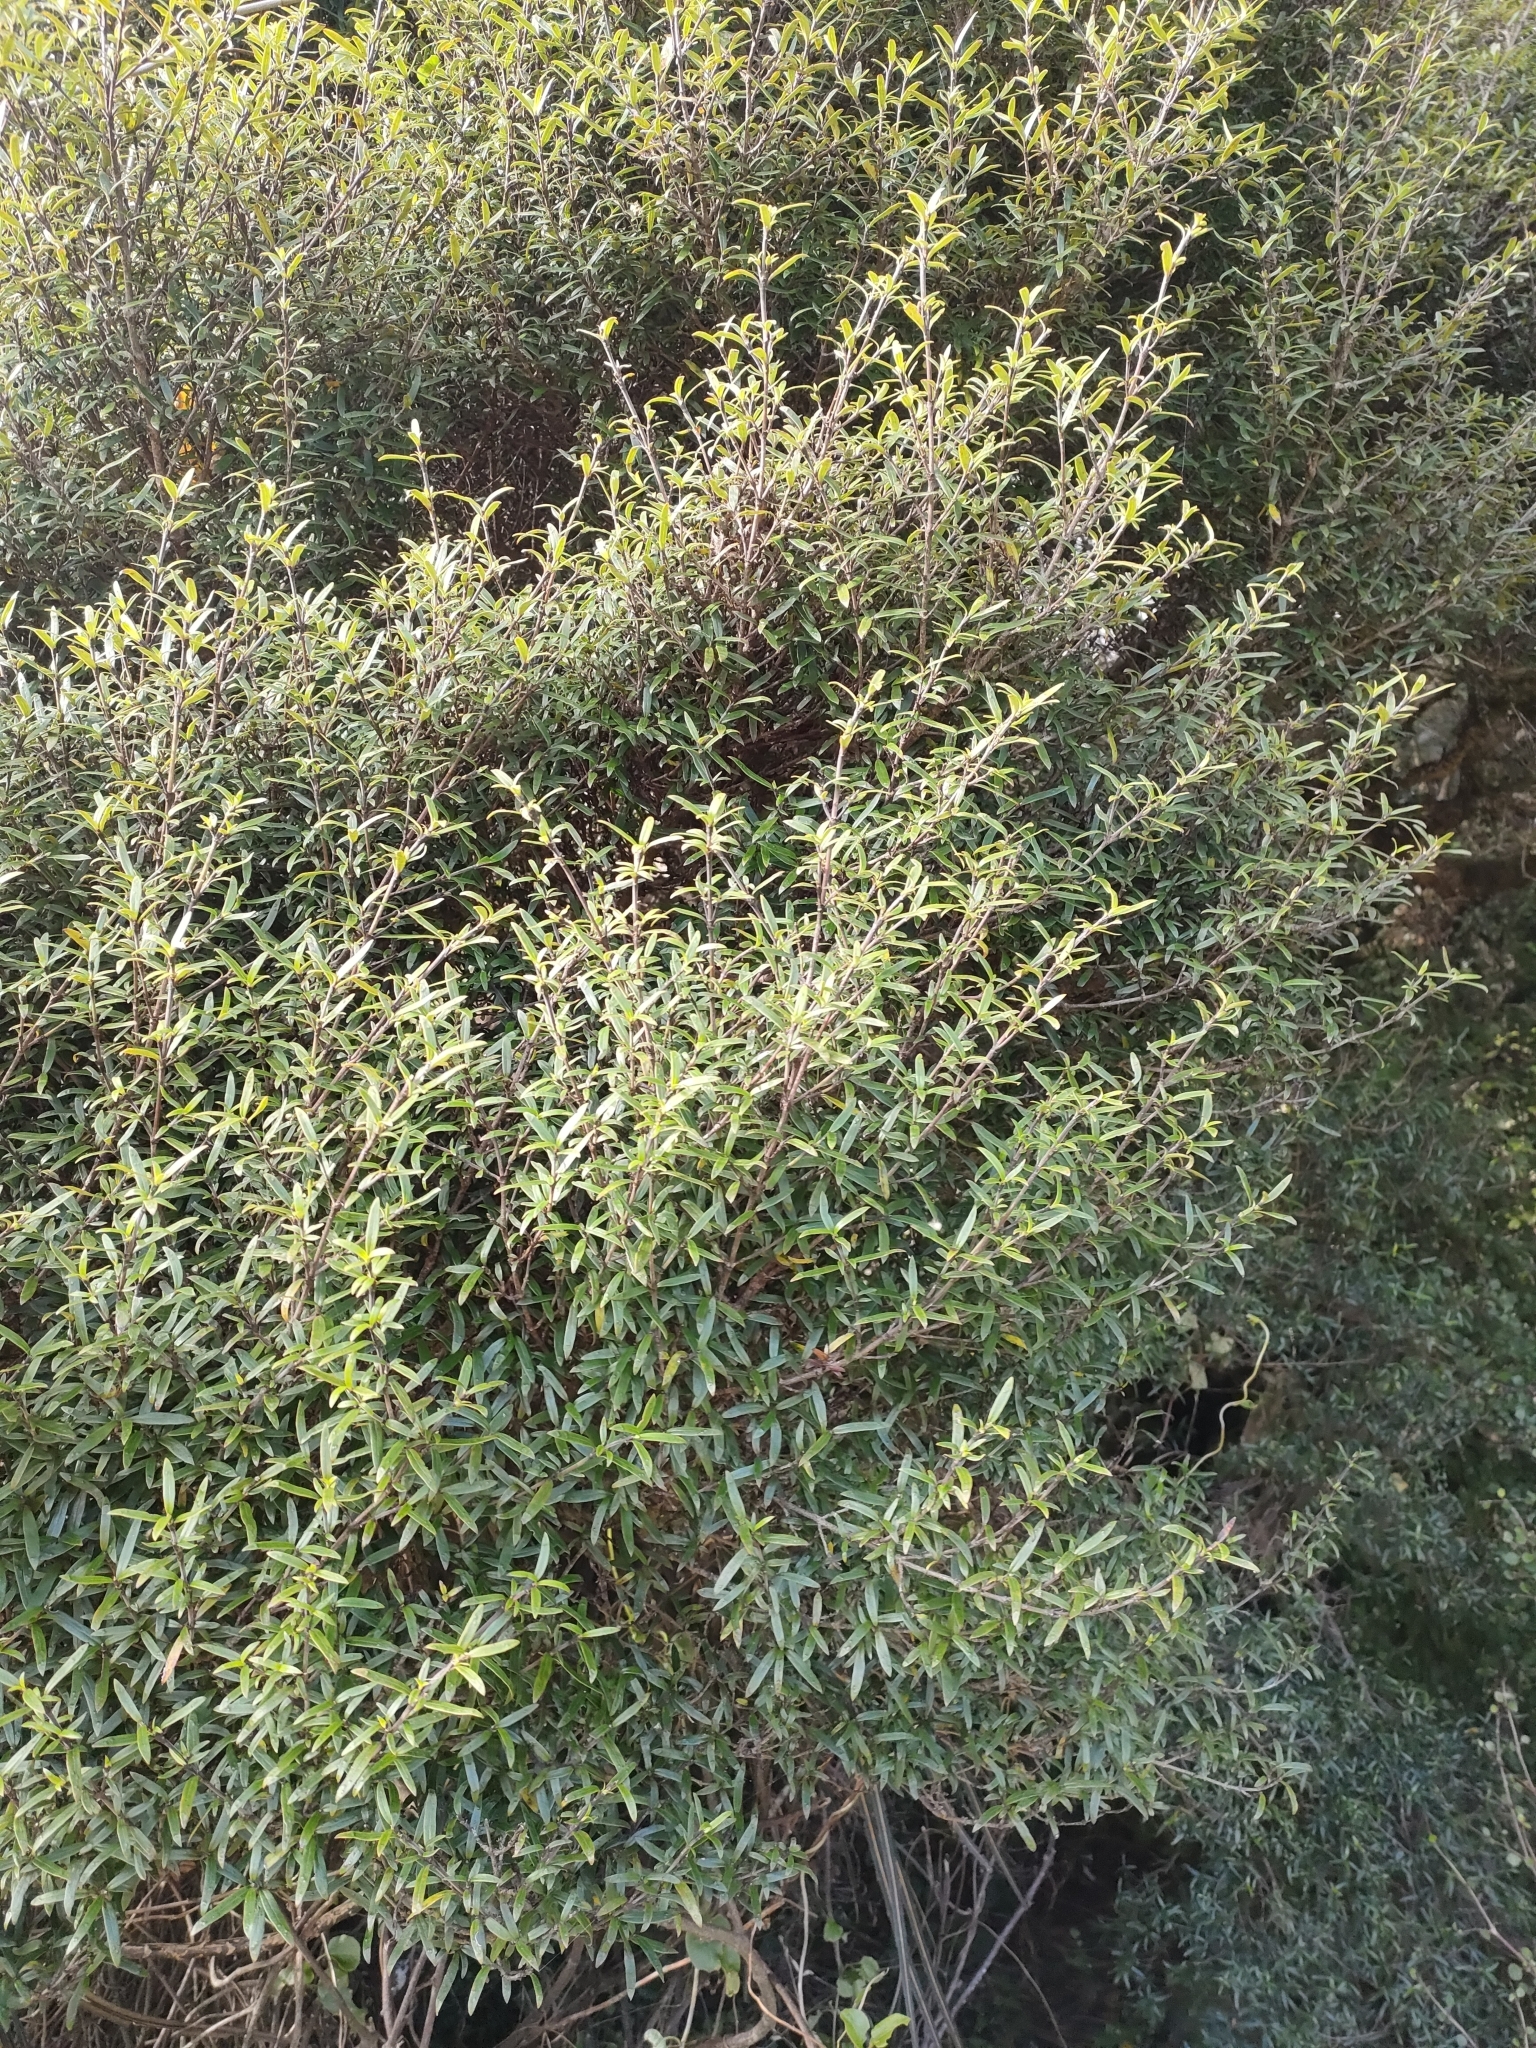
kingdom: Plantae
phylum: Tracheophyta
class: Magnoliopsida
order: Gentianales
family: Rubiaceae
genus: Coprosma
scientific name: Coprosma linariifolia
